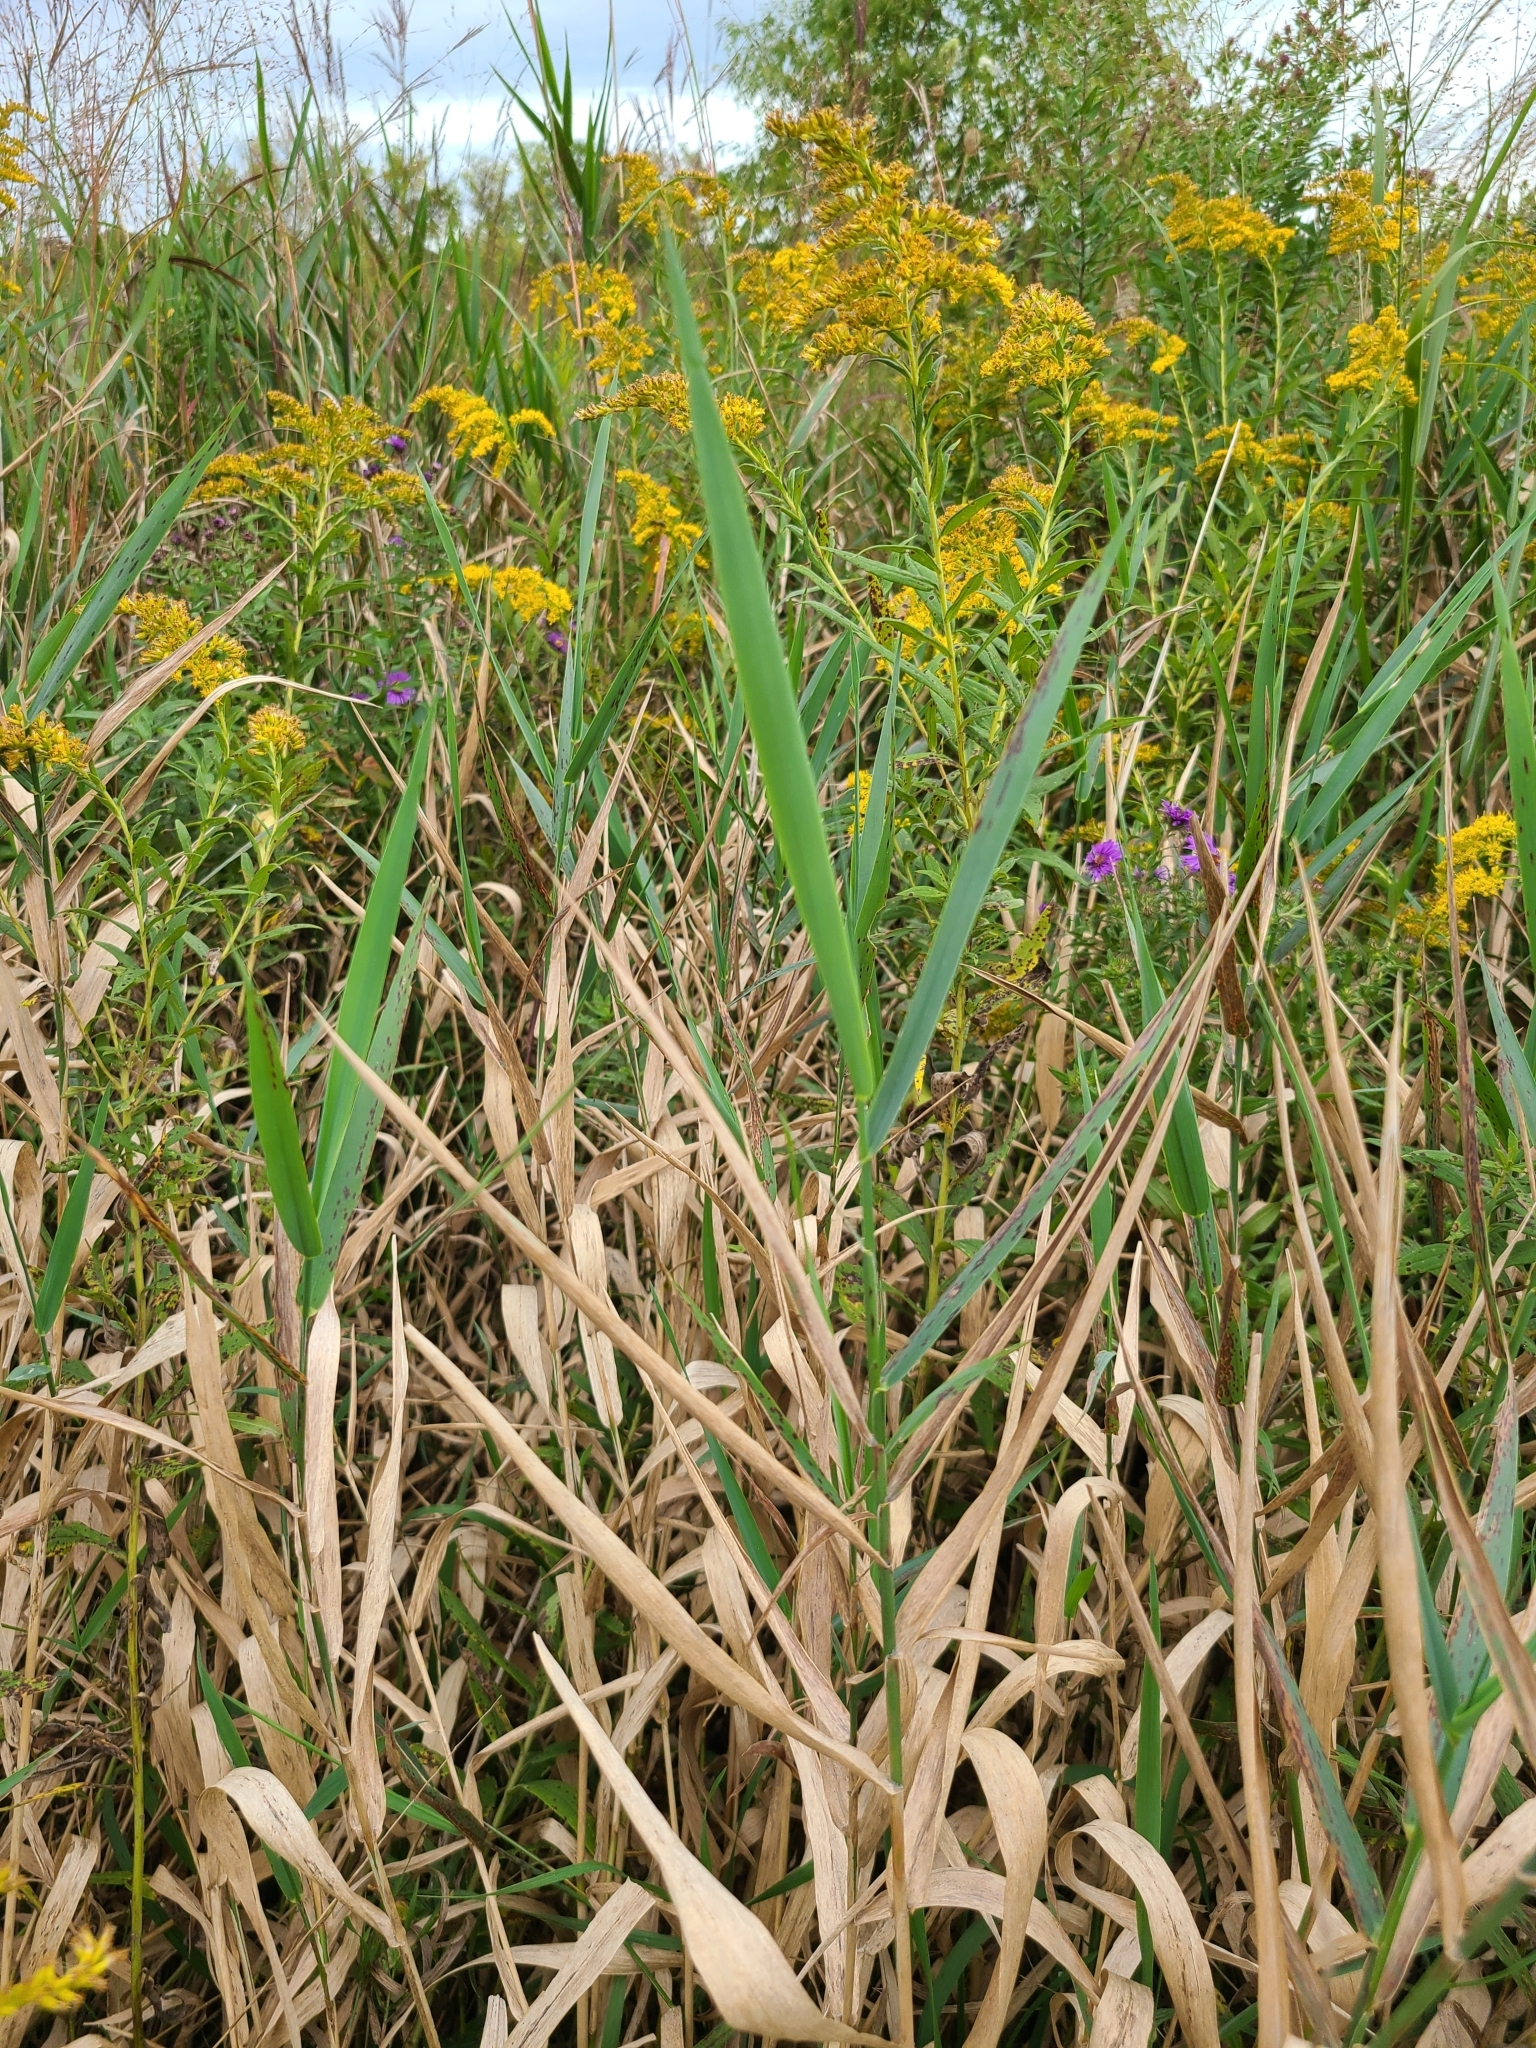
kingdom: Plantae
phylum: Tracheophyta
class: Liliopsida
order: Poales
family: Poaceae
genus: Phalaris
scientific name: Phalaris arundinacea
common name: Reed canary-grass
